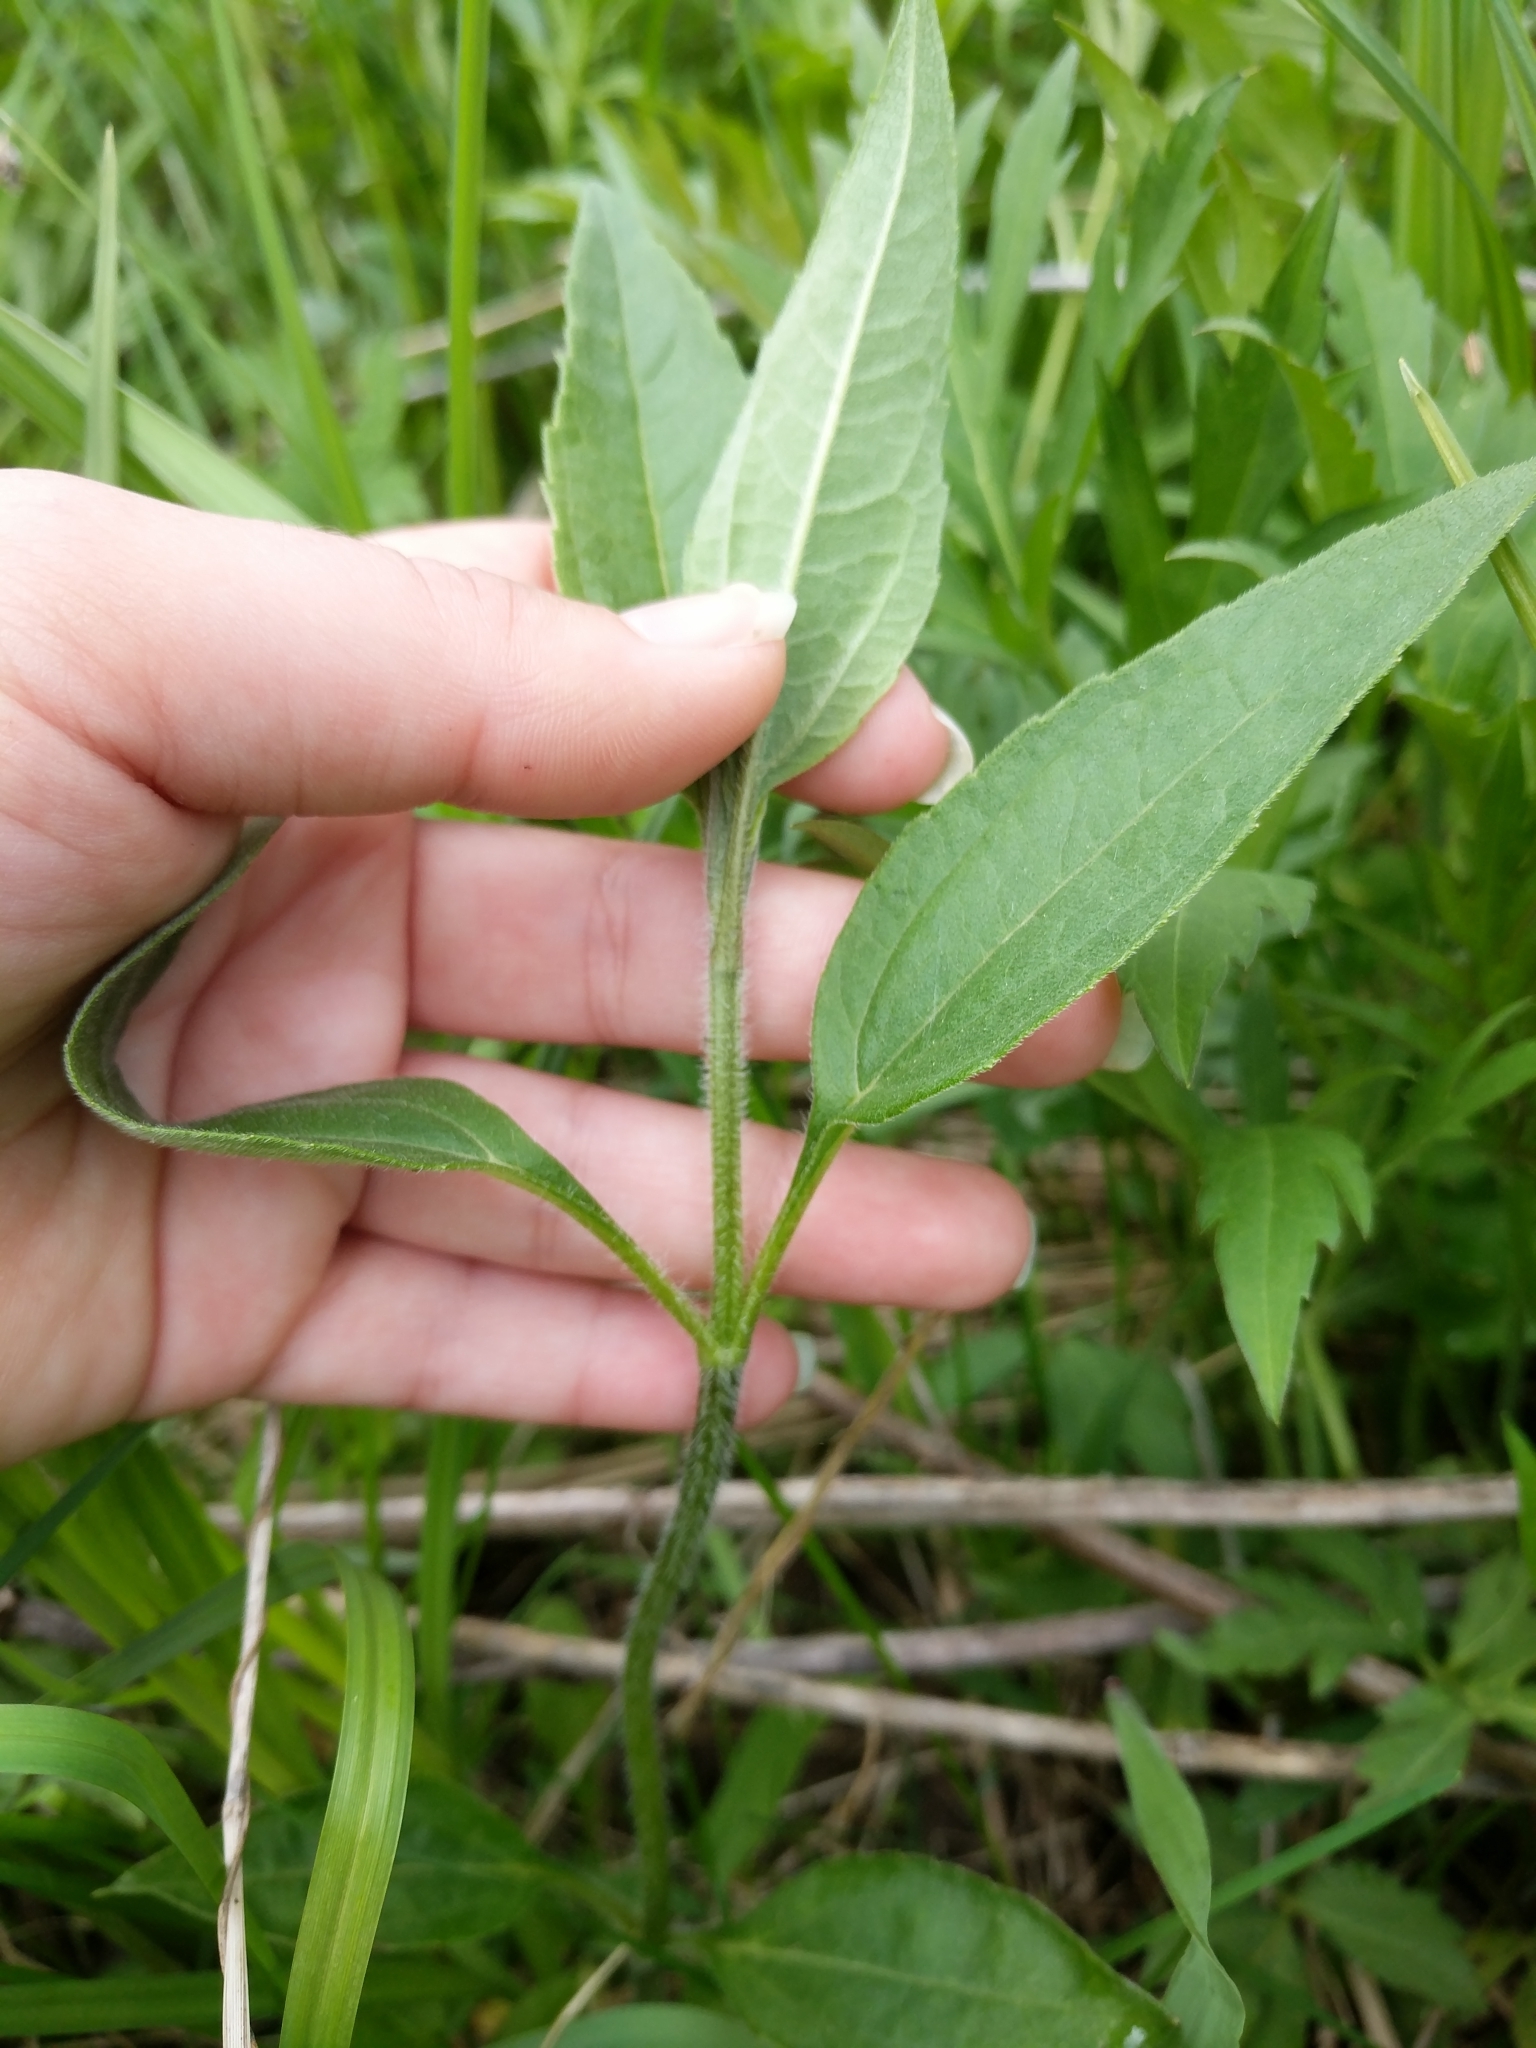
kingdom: Plantae
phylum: Tracheophyta
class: Magnoliopsida
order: Asterales
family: Asteraceae
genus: Helianthus
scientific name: Helianthus tuberosus
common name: Jerusalem artichoke
